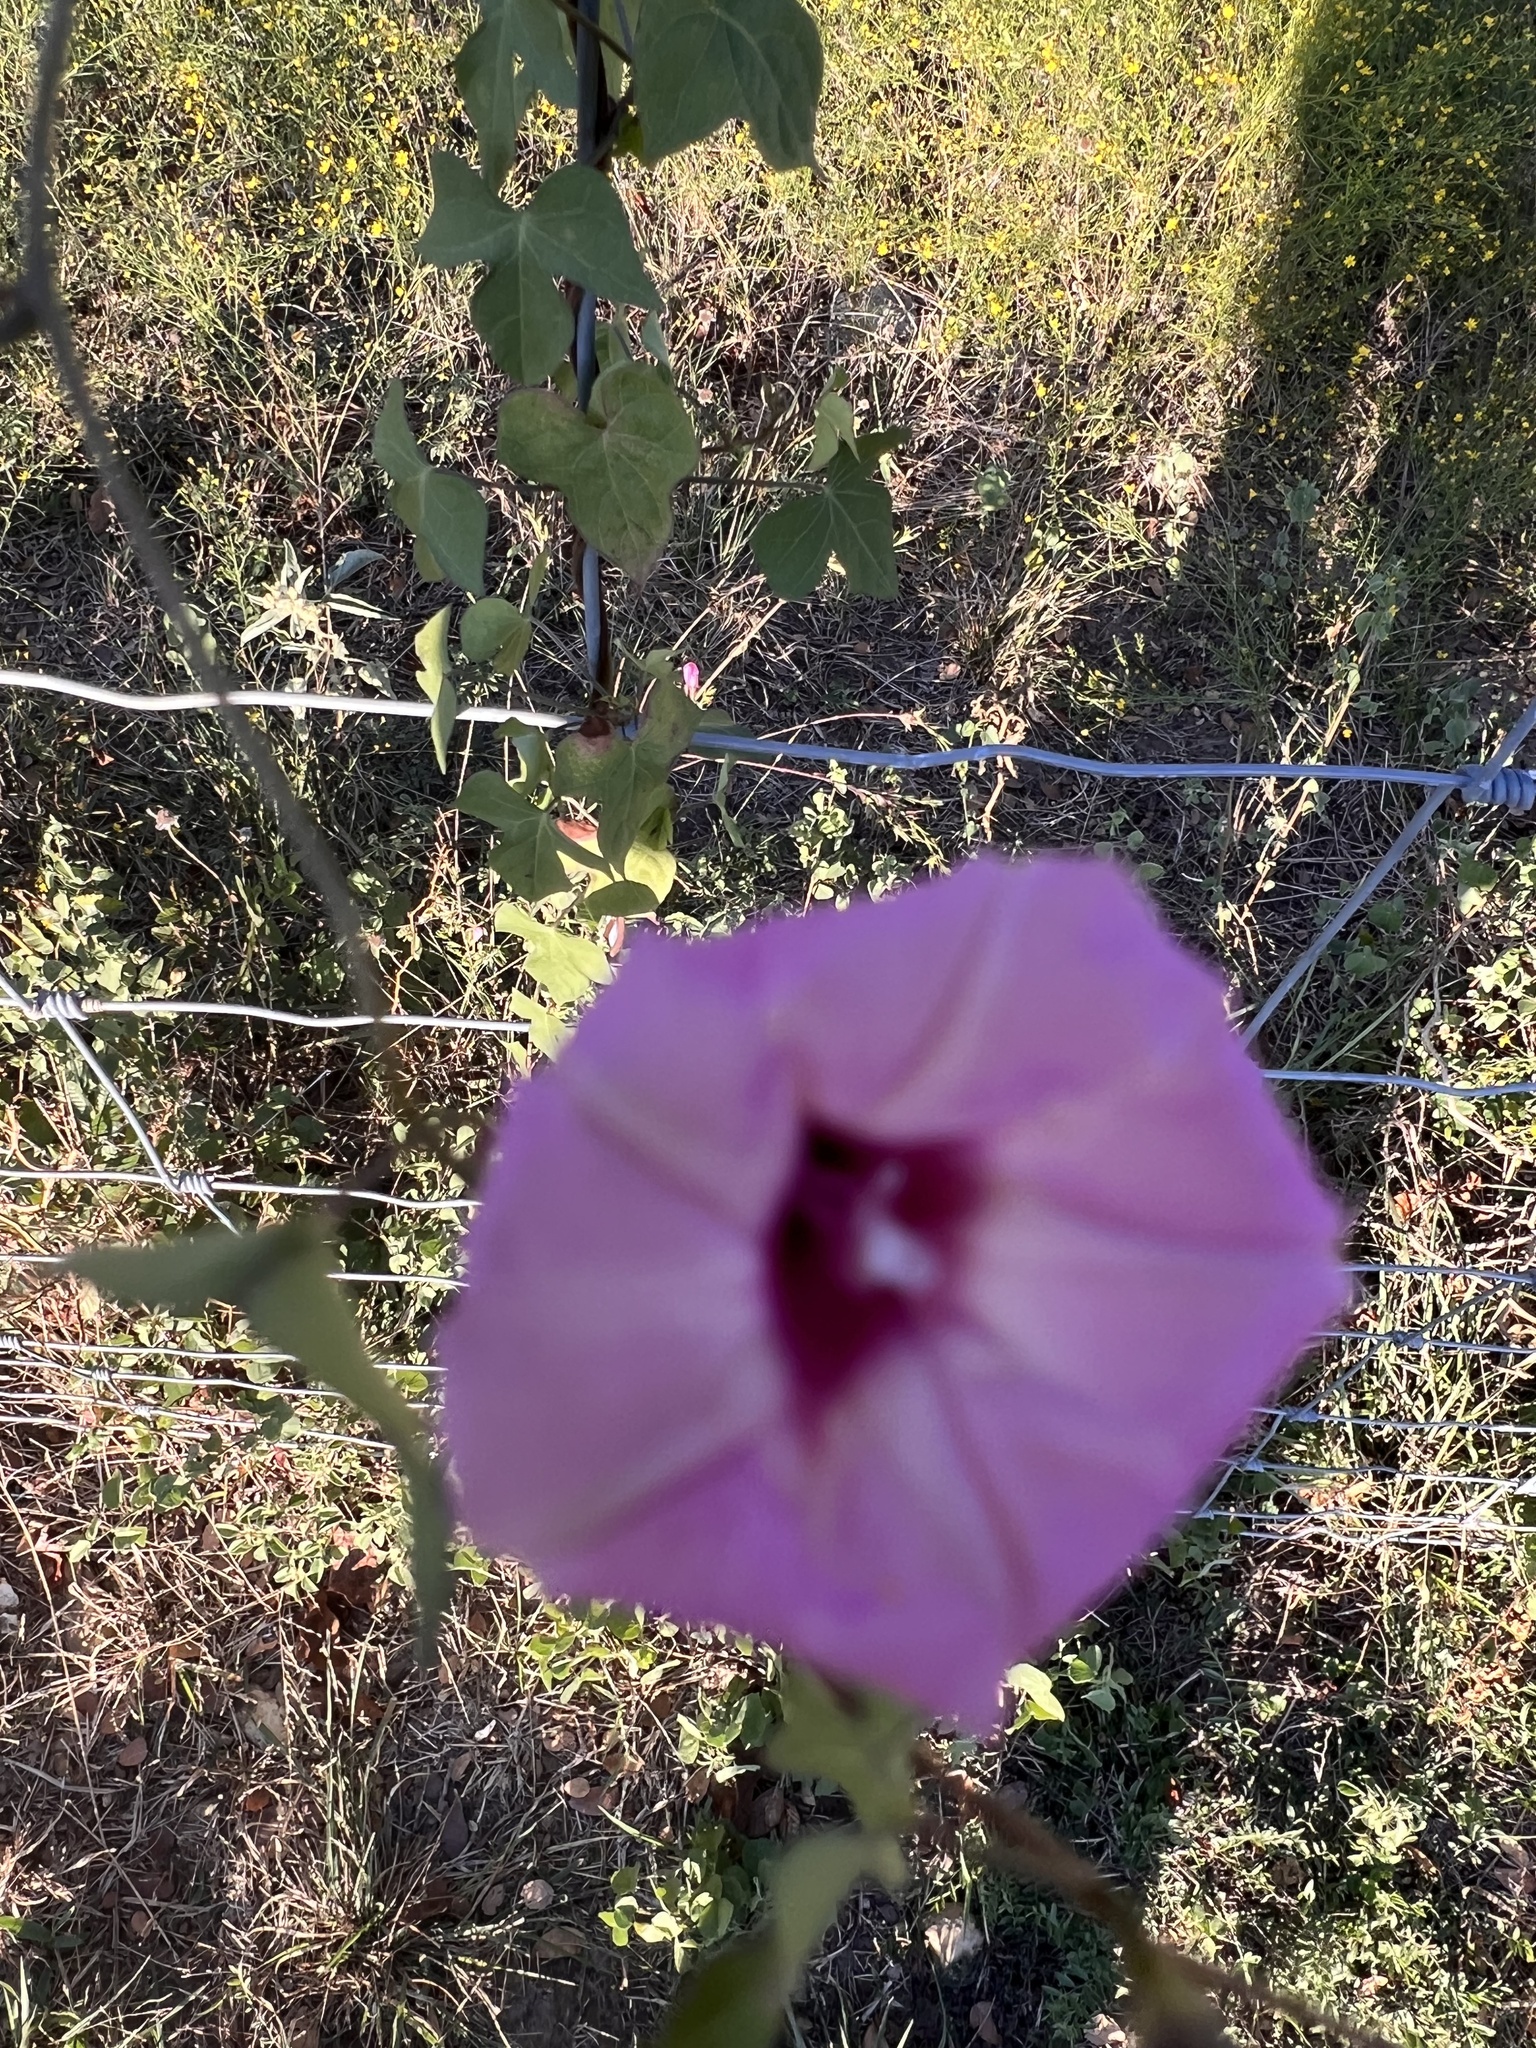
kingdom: Plantae
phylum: Tracheophyta
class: Magnoliopsida
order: Solanales
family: Convolvulaceae
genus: Ipomoea
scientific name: Ipomoea cordatotriloba
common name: Cotton morning glory
